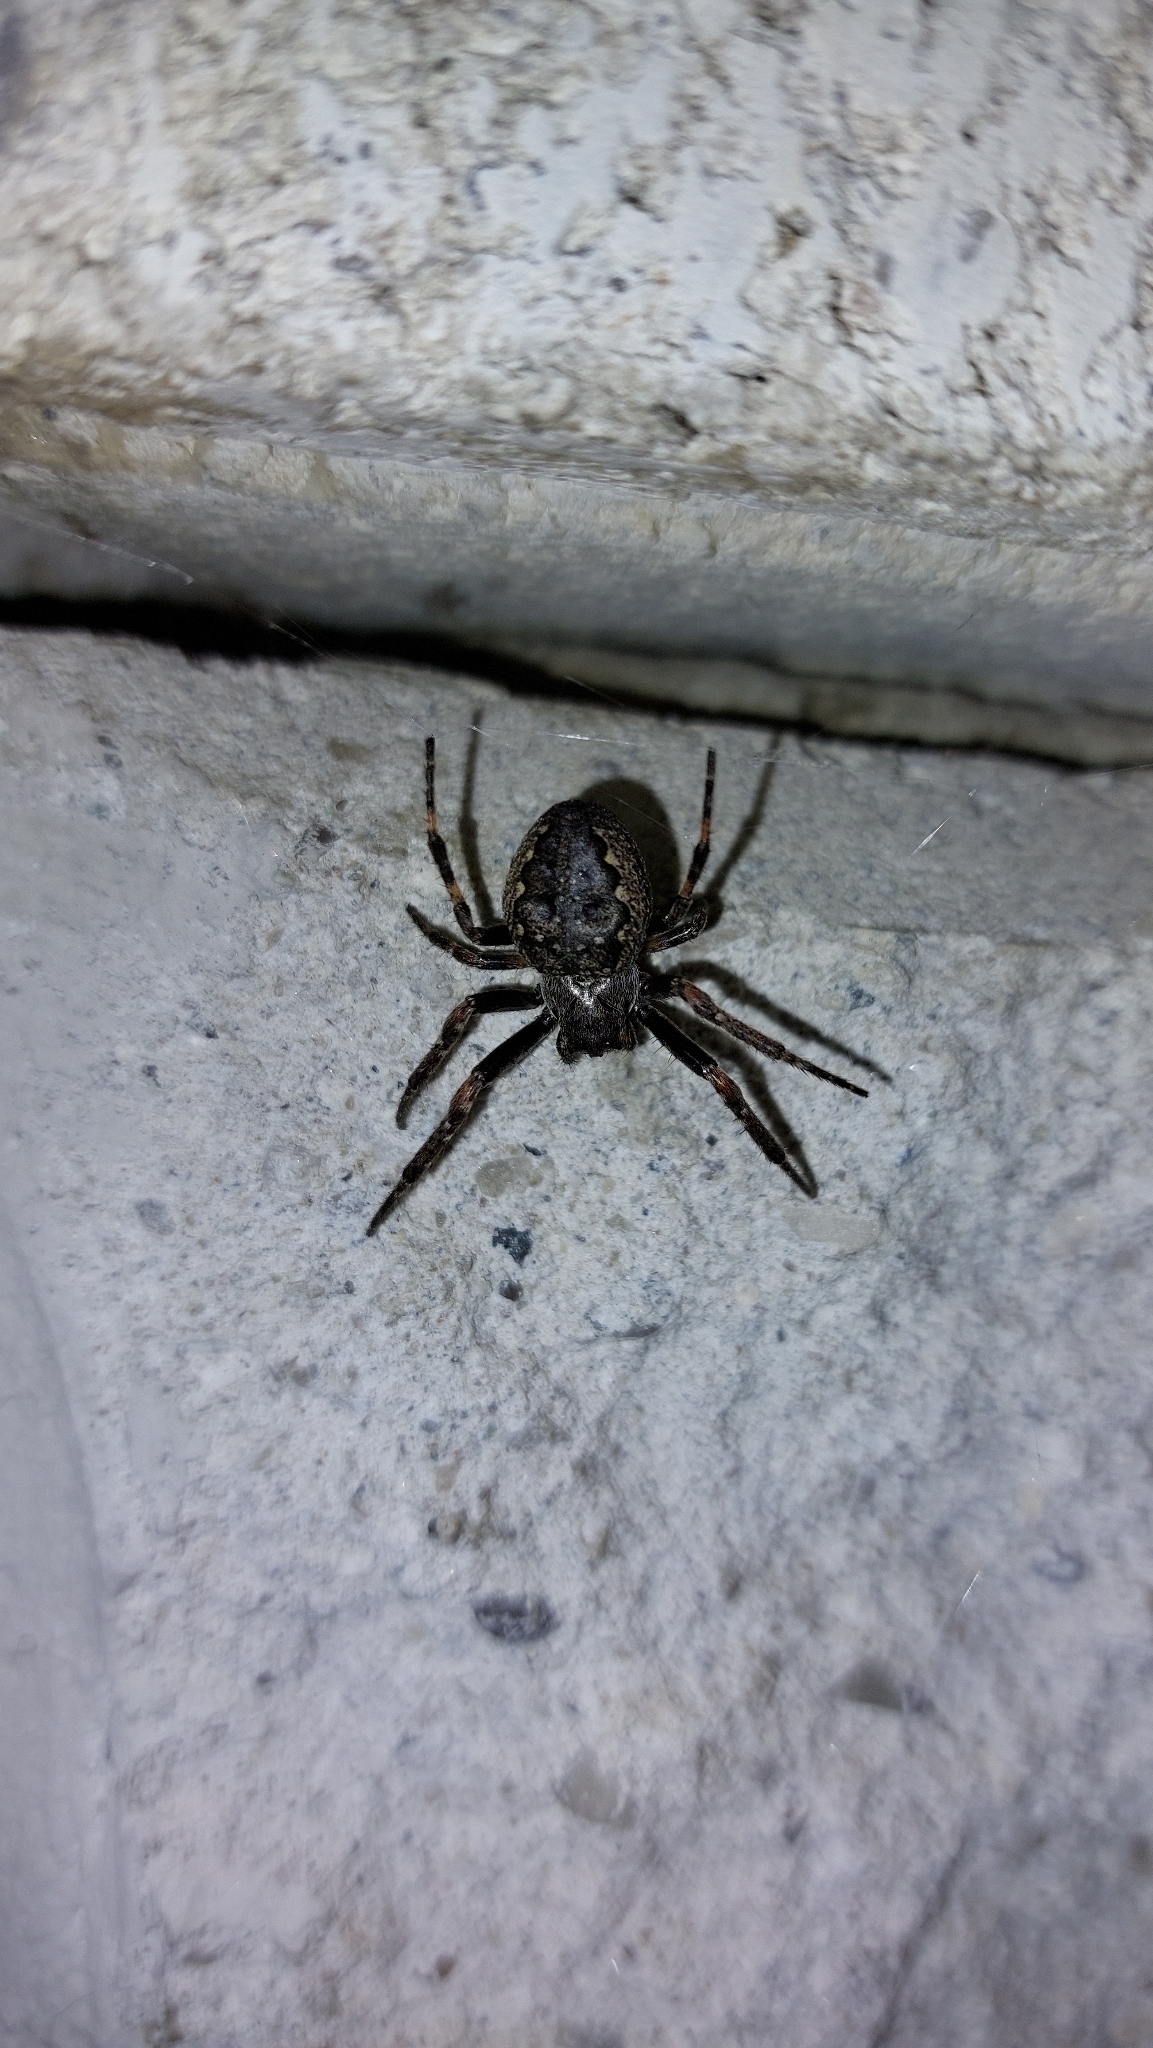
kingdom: Animalia
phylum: Arthropoda
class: Arachnida
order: Araneae
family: Araneidae
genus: Nuctenea
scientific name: Nuctenea umbratica
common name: Toad spider
